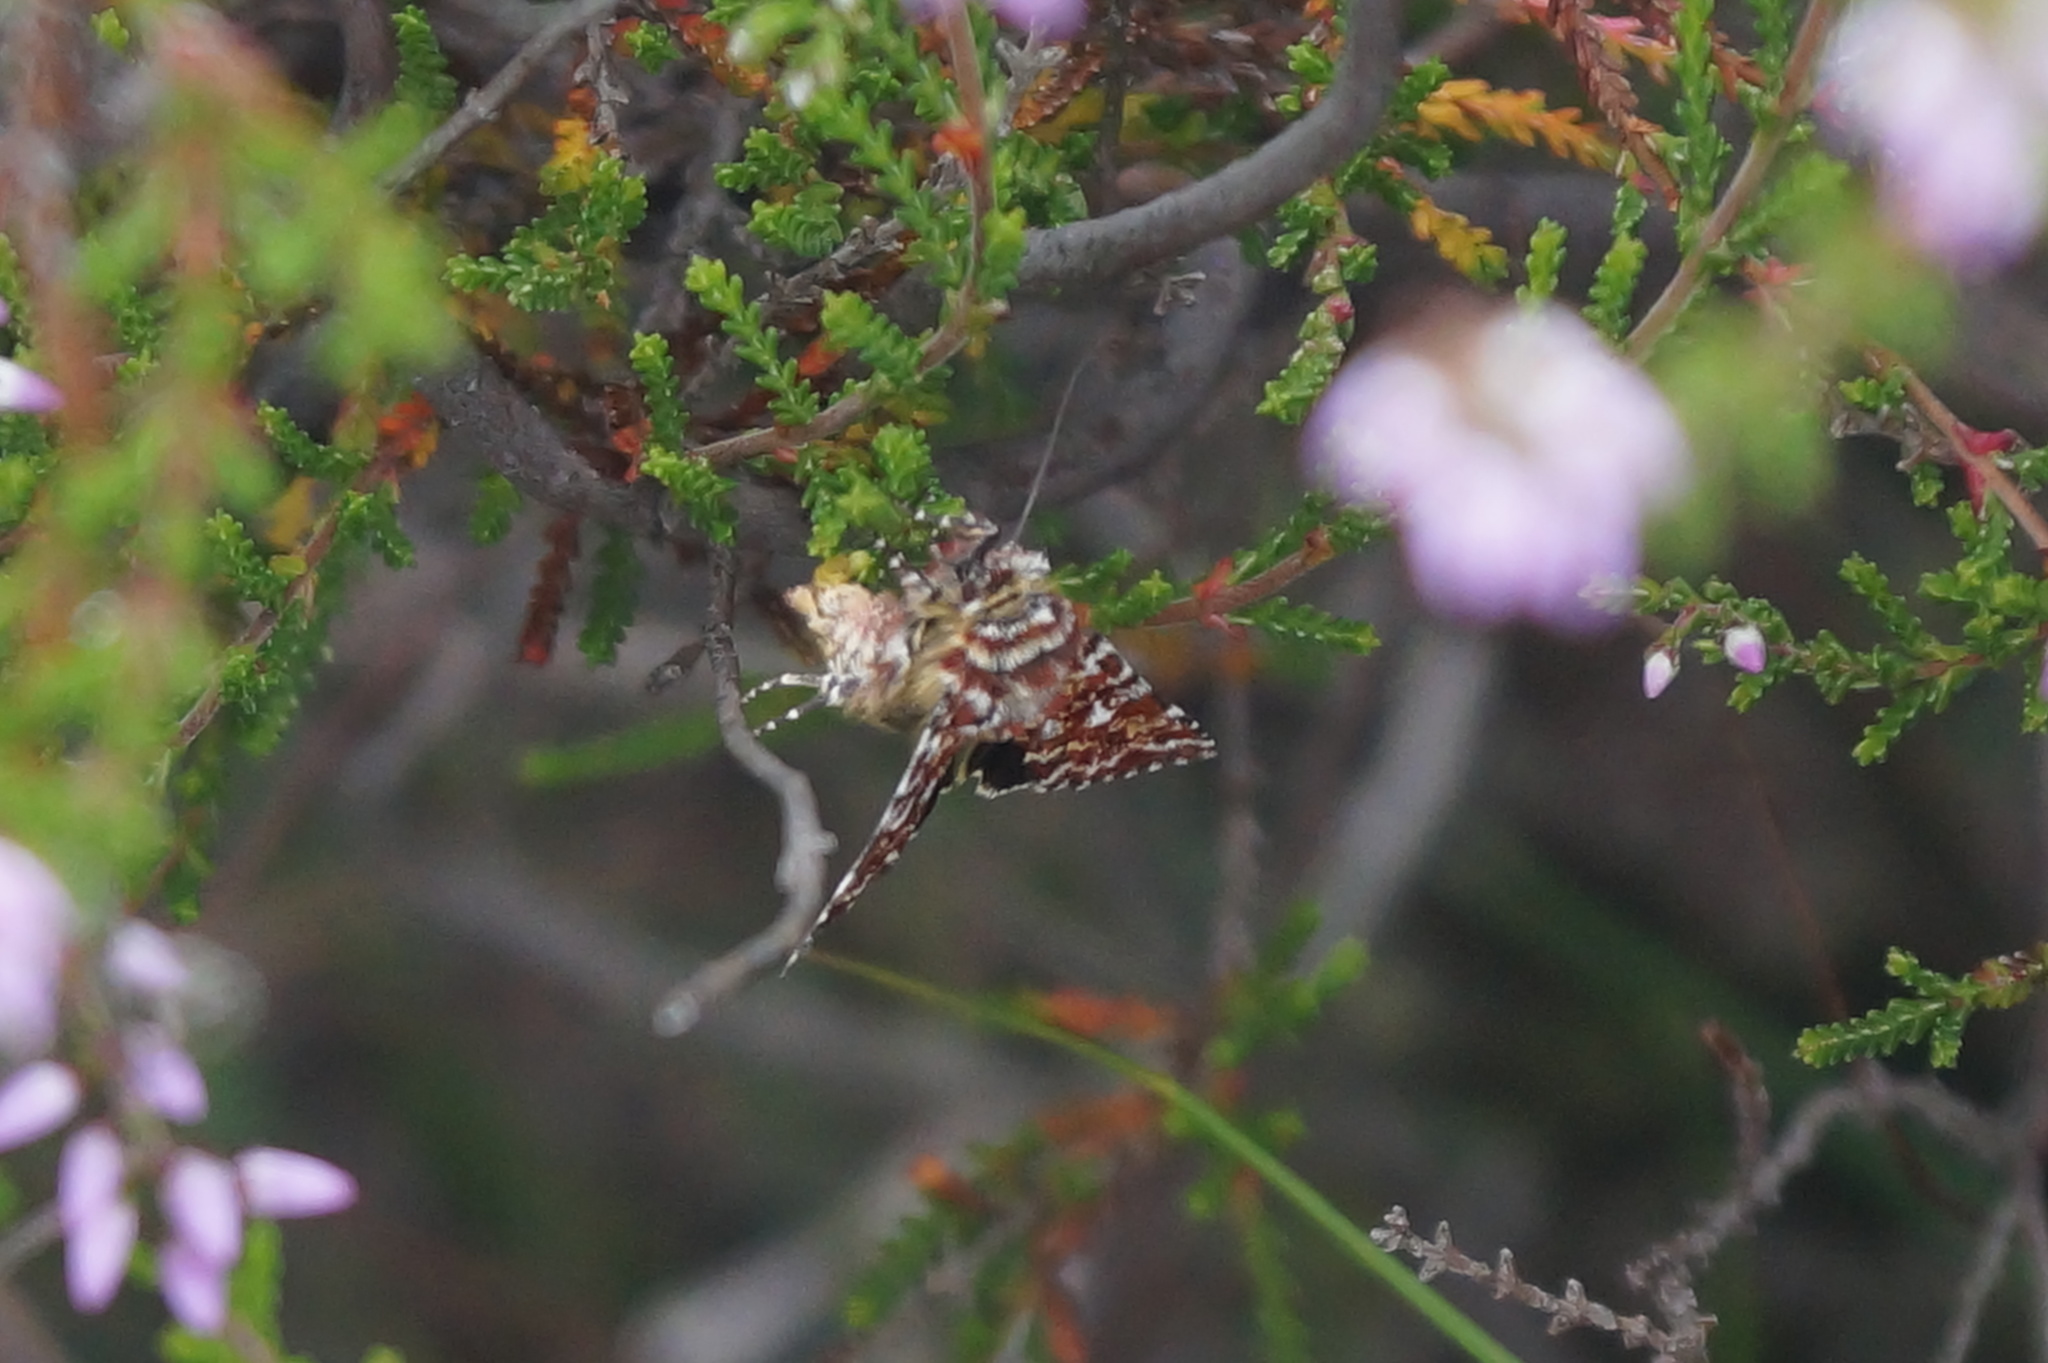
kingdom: Animalia
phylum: Arthropoda
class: Insecta
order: Lepidoptera
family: Noctuidae
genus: Anarta
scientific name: Anarta myrtilli
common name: Beautiful yellow underwing
